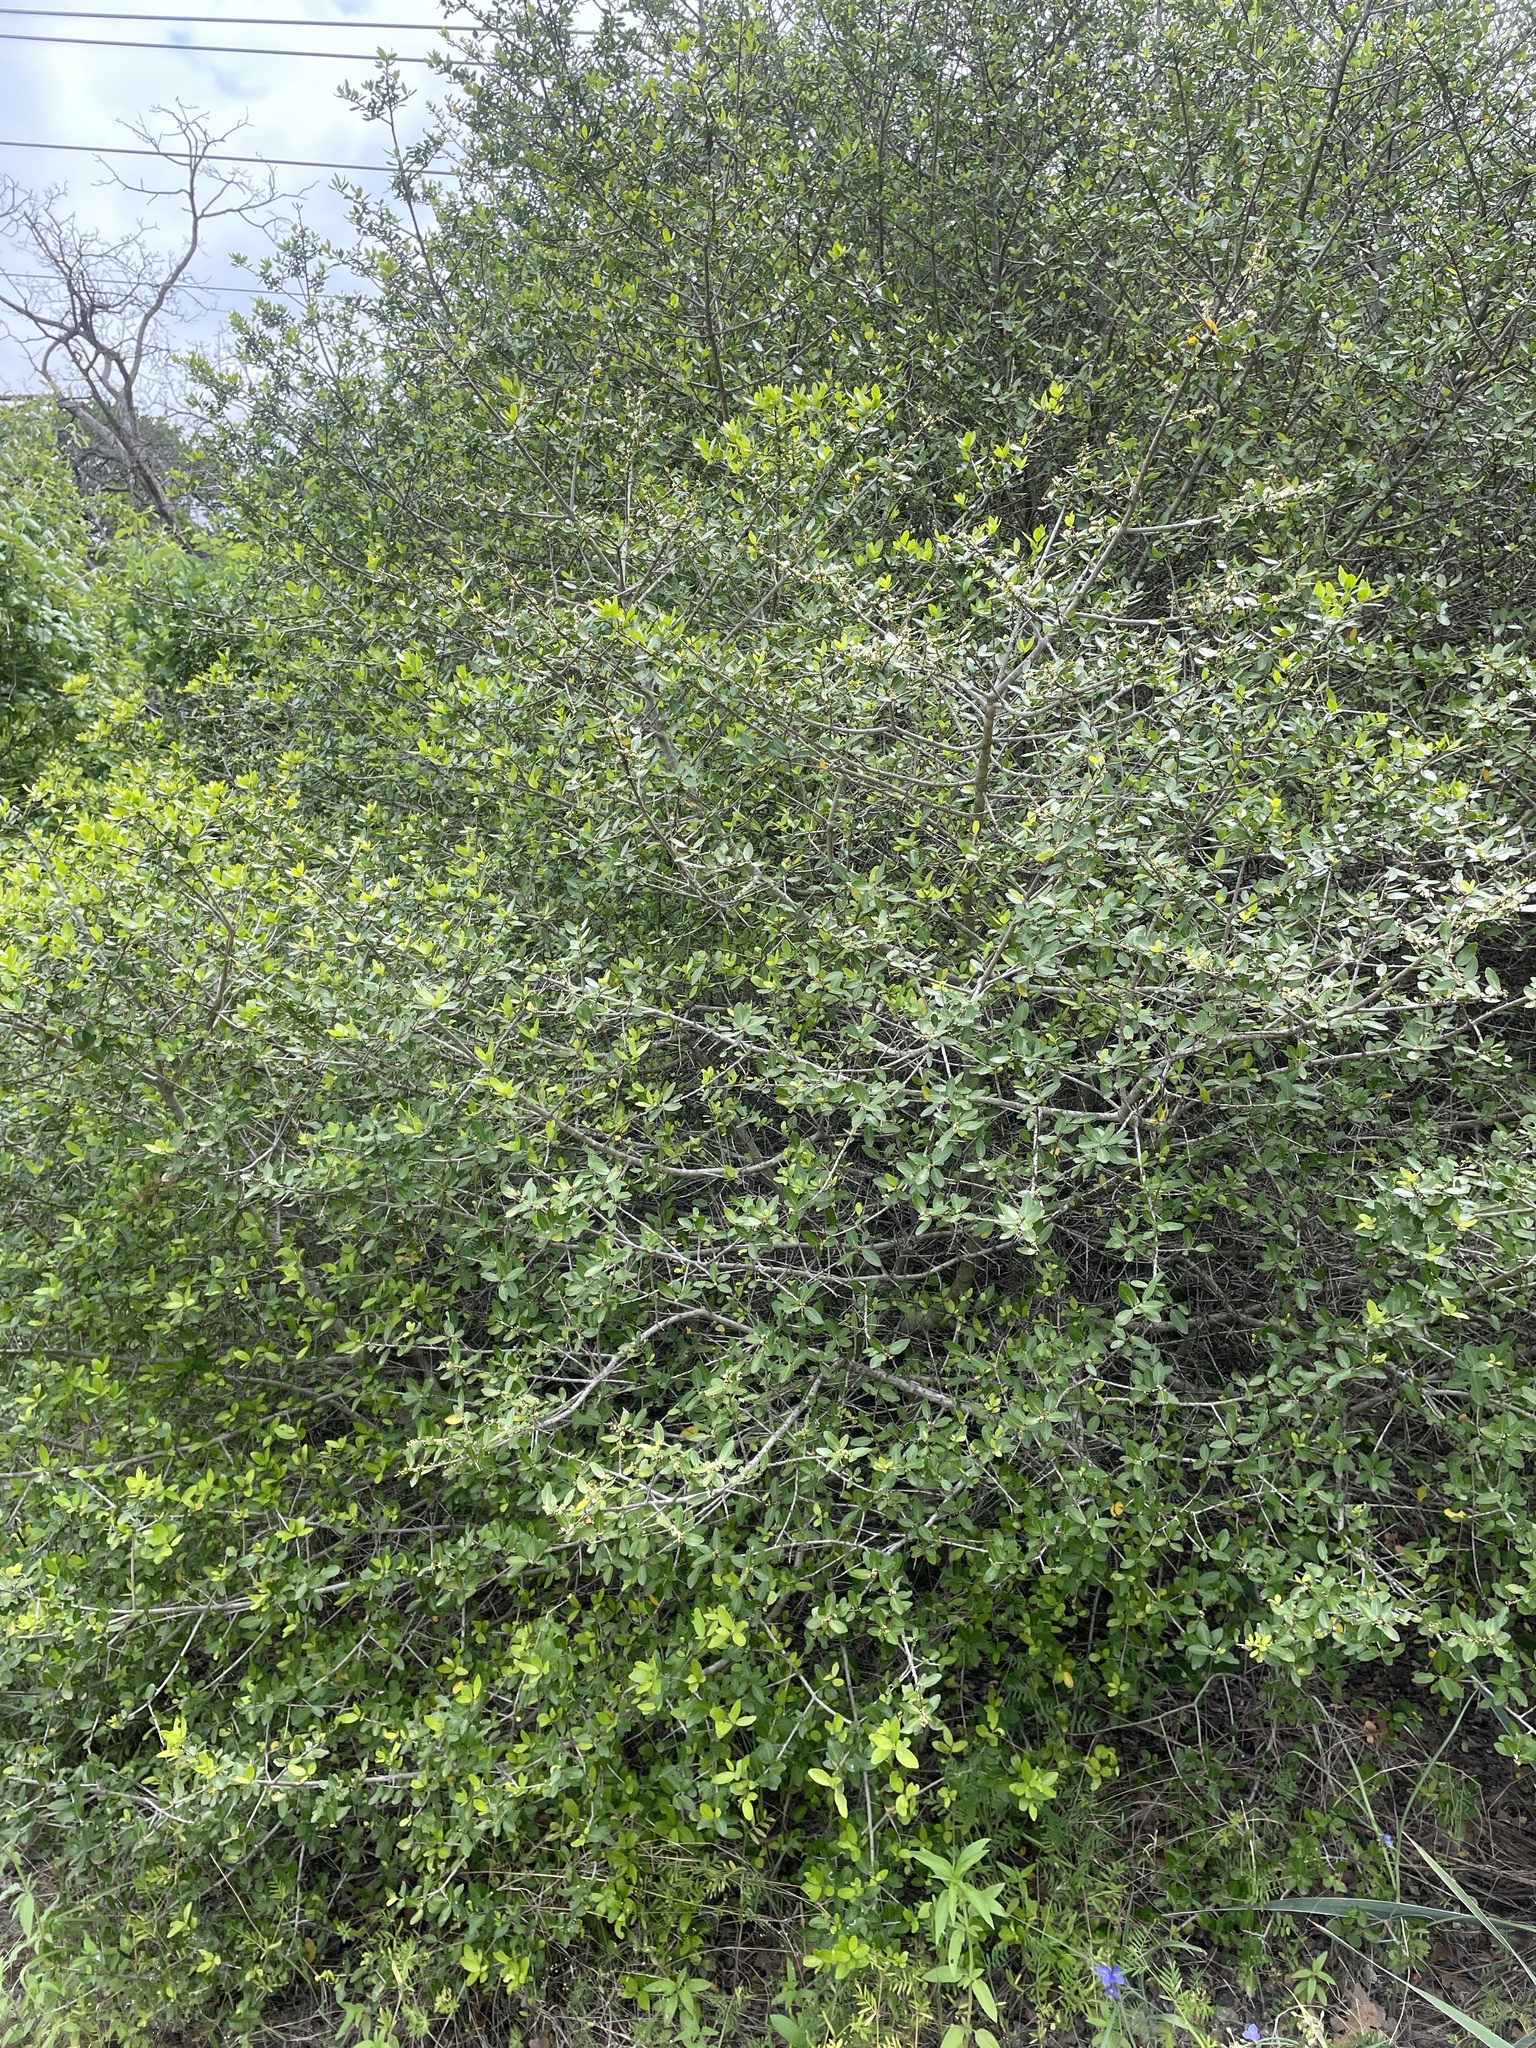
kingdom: Plantae
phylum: Tracheophyta
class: Magnoliopsida
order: Aquifoliales
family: Aquifoliaceae
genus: Ilex
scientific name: Ilex vomitoria
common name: Yaupon holly
